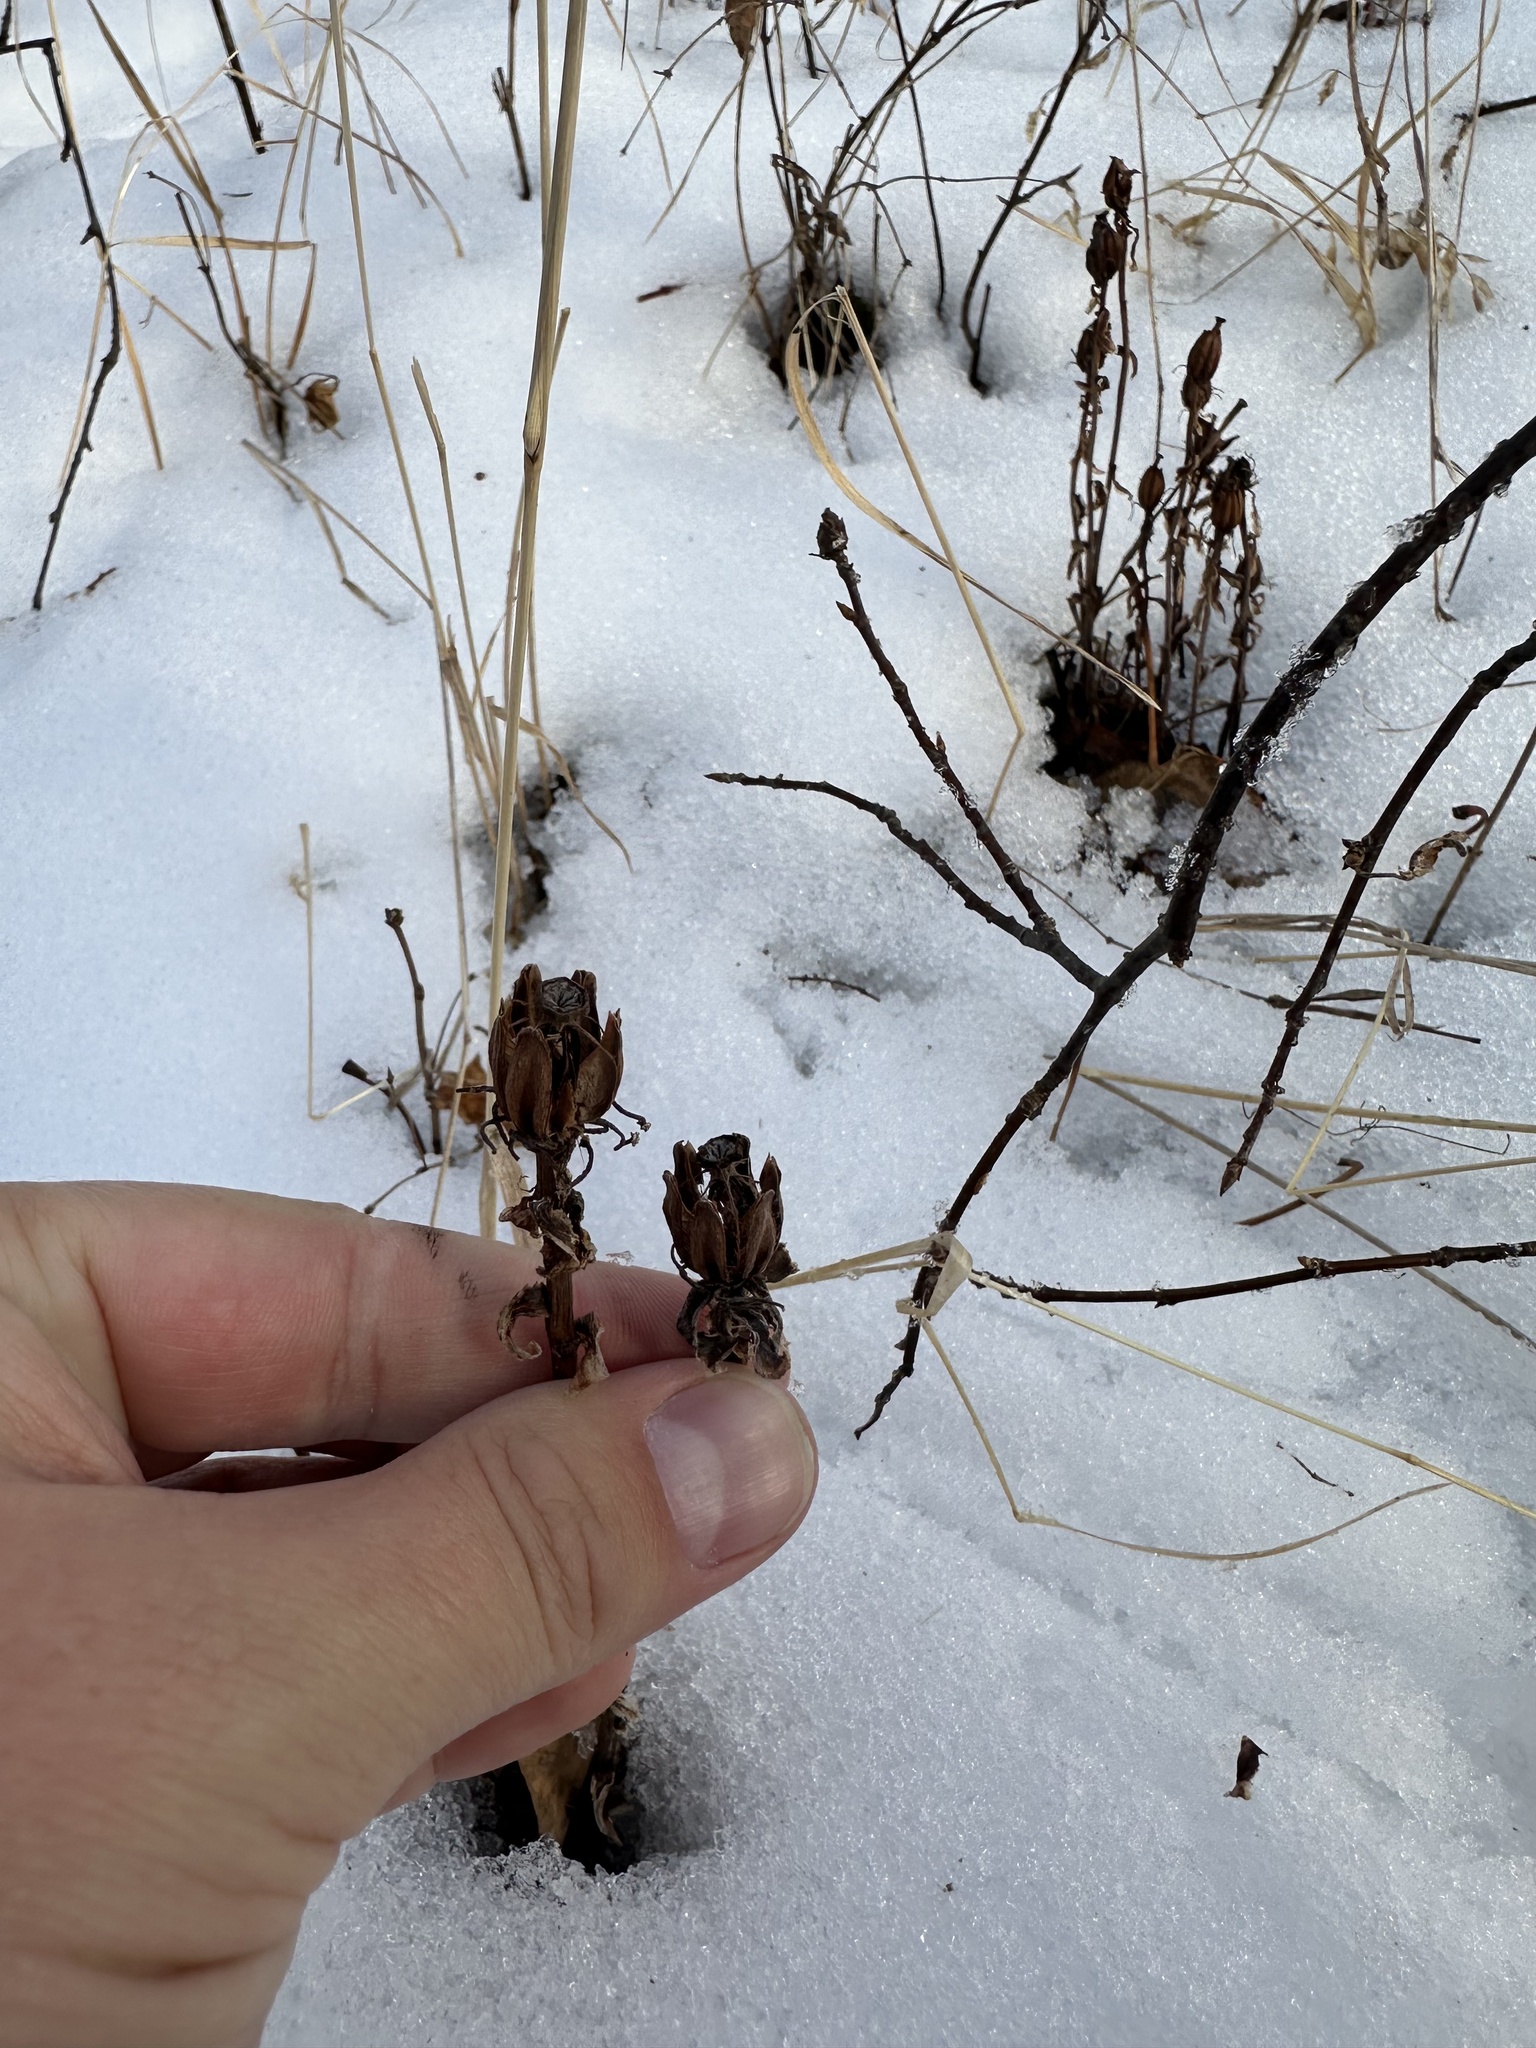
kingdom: Plantae
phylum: Tracheophyta
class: Magnoliopsida
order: Ericales
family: Ericaceae
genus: Monotropa
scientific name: Monotropa uniflora
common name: Convulsion root
